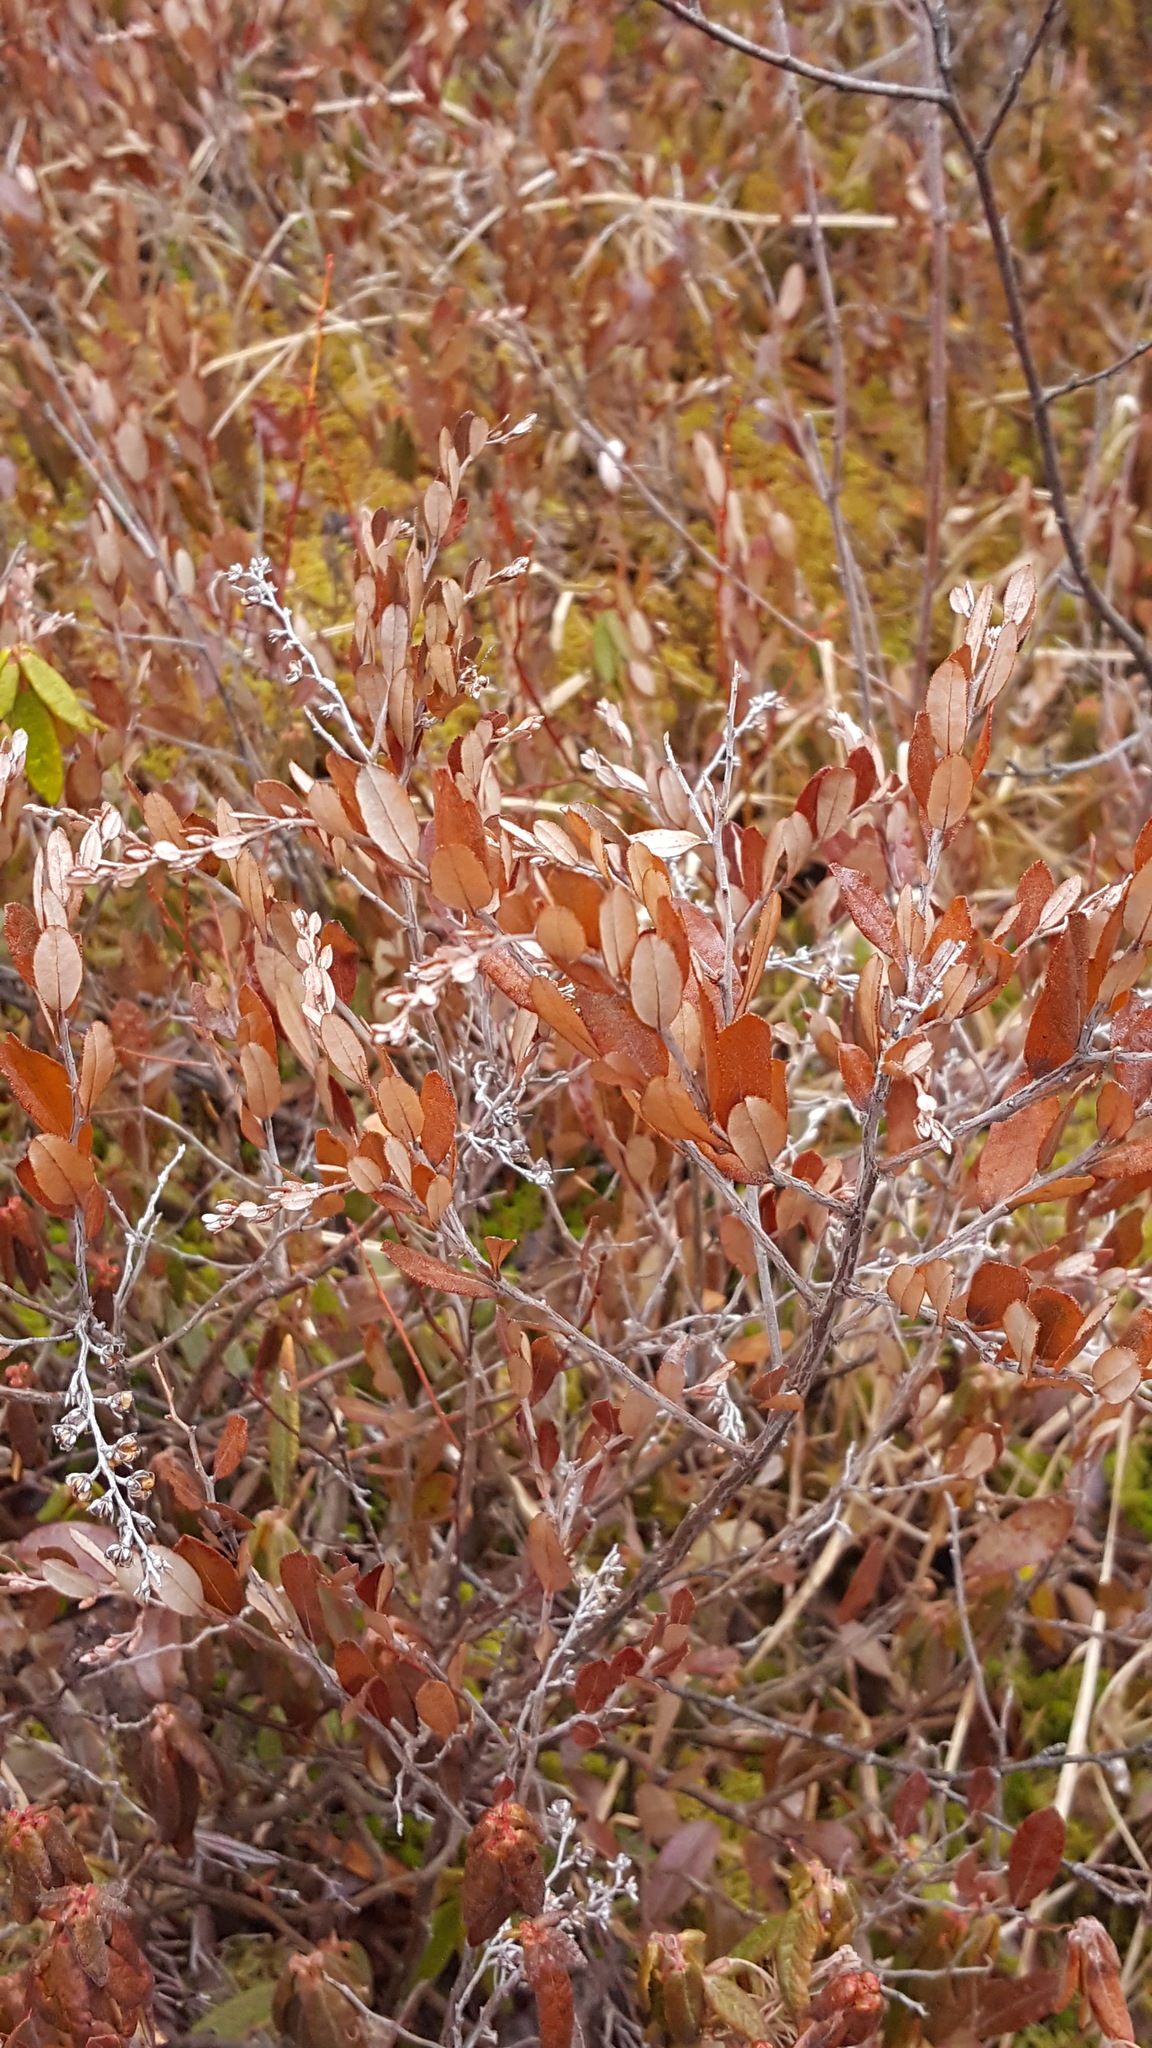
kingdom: Plantae
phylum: Tracheophyta
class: Magnoliopsida
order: Ericales
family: Ericaceae
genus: Chamaedaphne
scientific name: Chamaedaphne calyculata
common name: Leatherleaf
